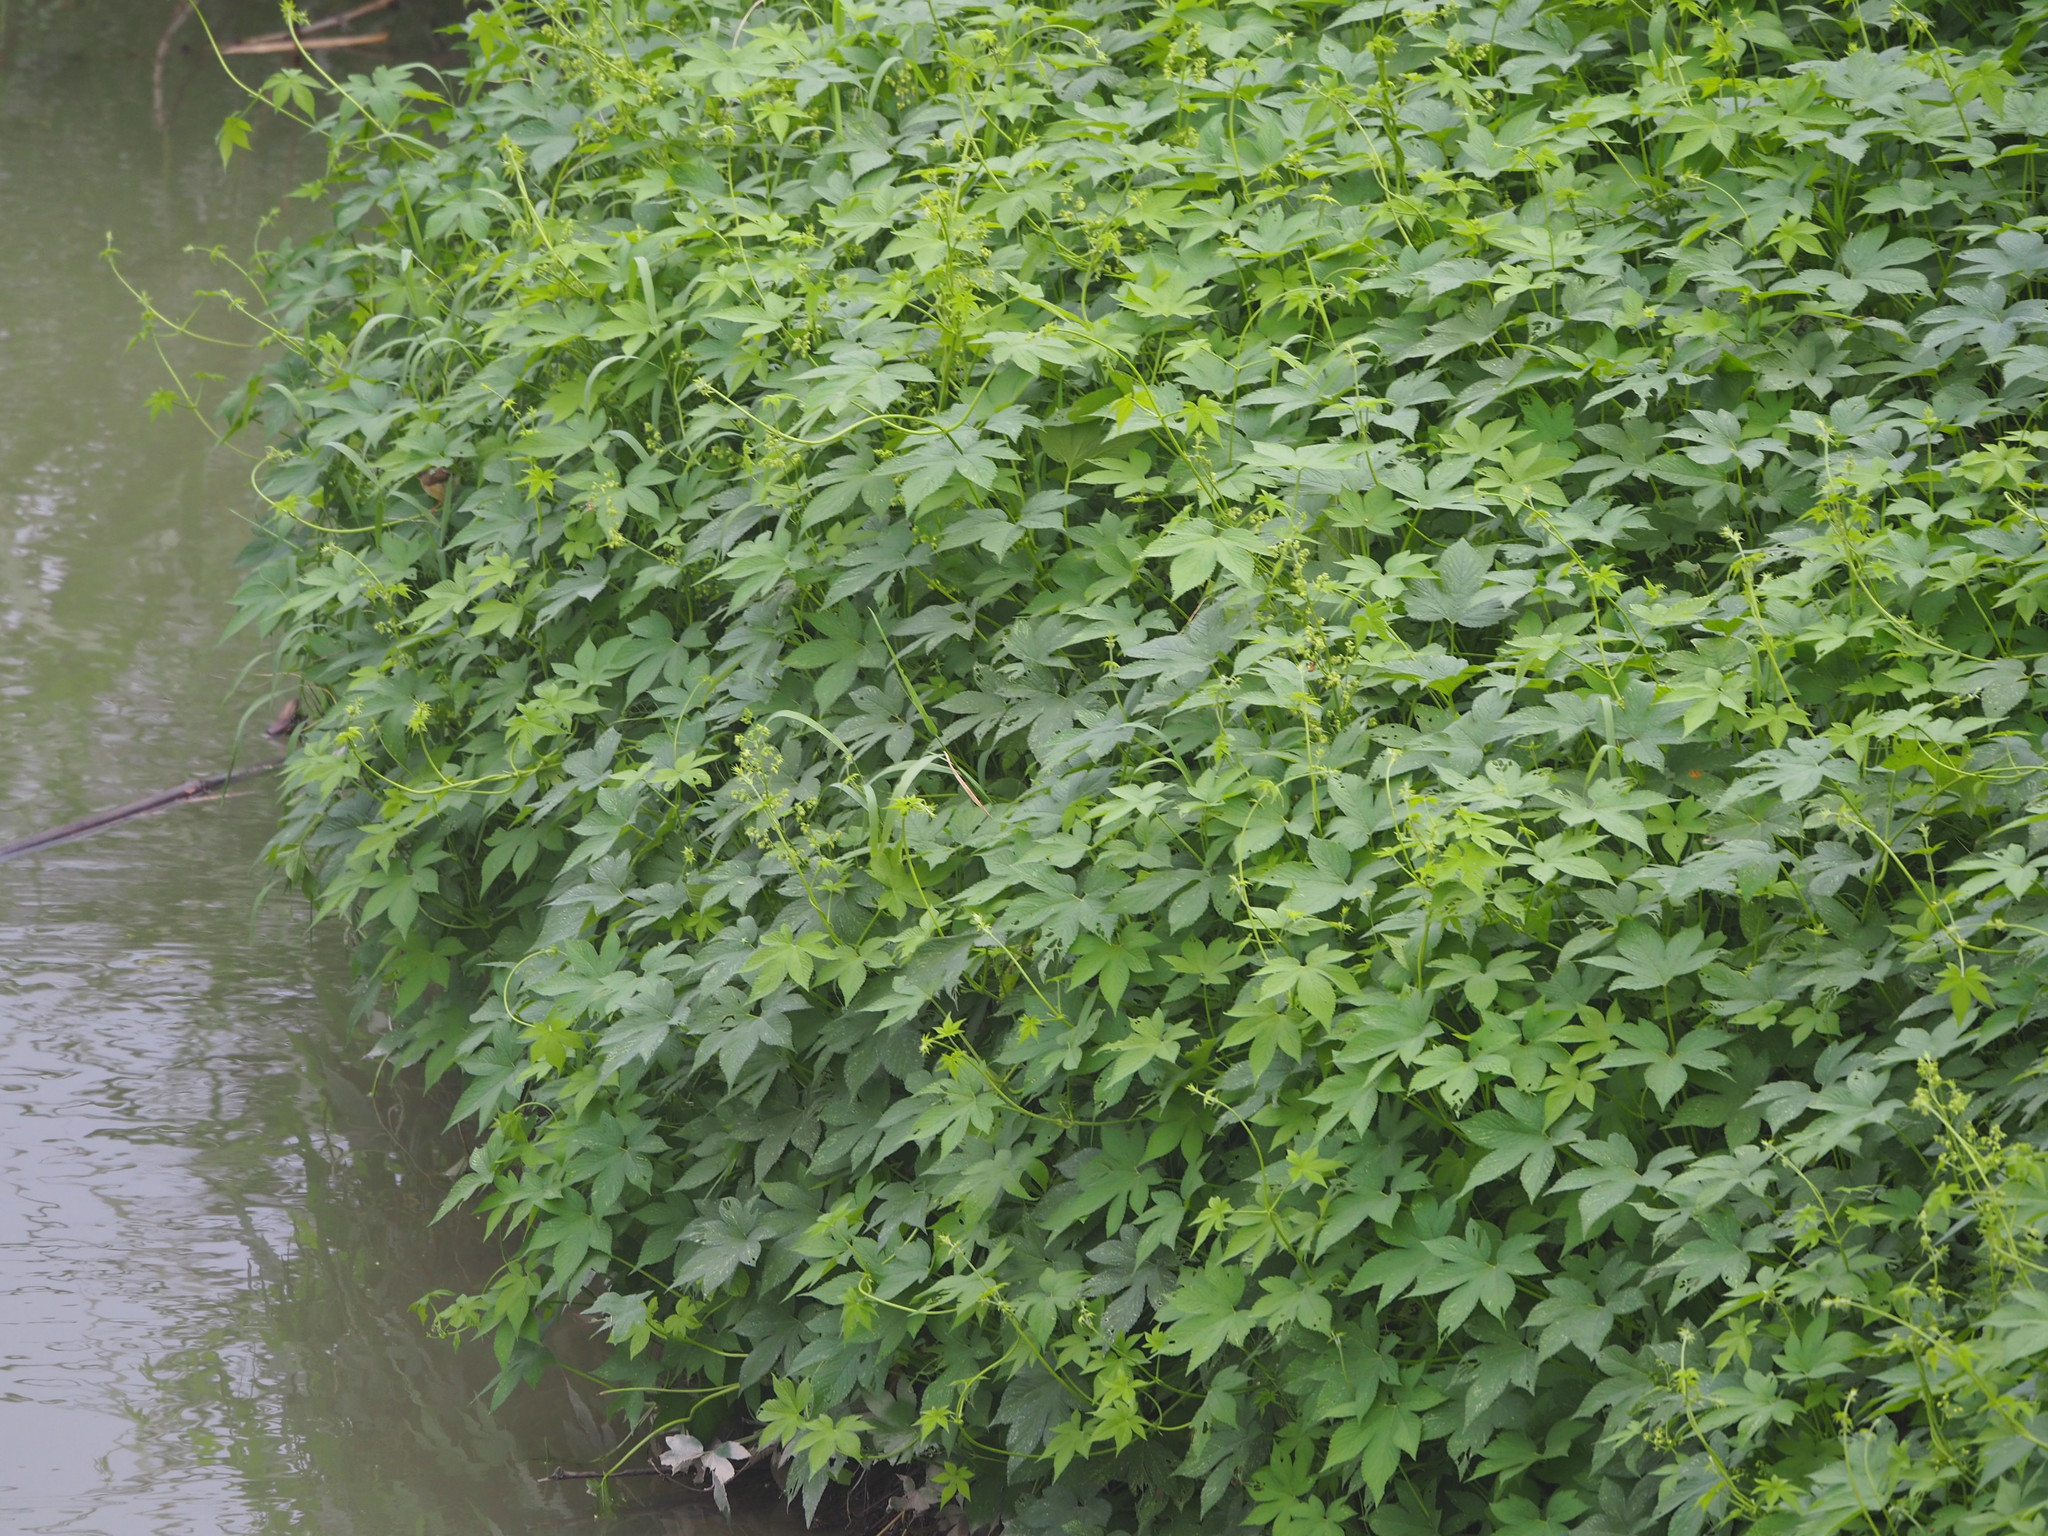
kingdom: Plantae
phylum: Tracheophyta
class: Magnoliopsida
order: Rosales
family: Cannabaceae
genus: Humulus
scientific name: Humulus scandens
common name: Japanese hop
